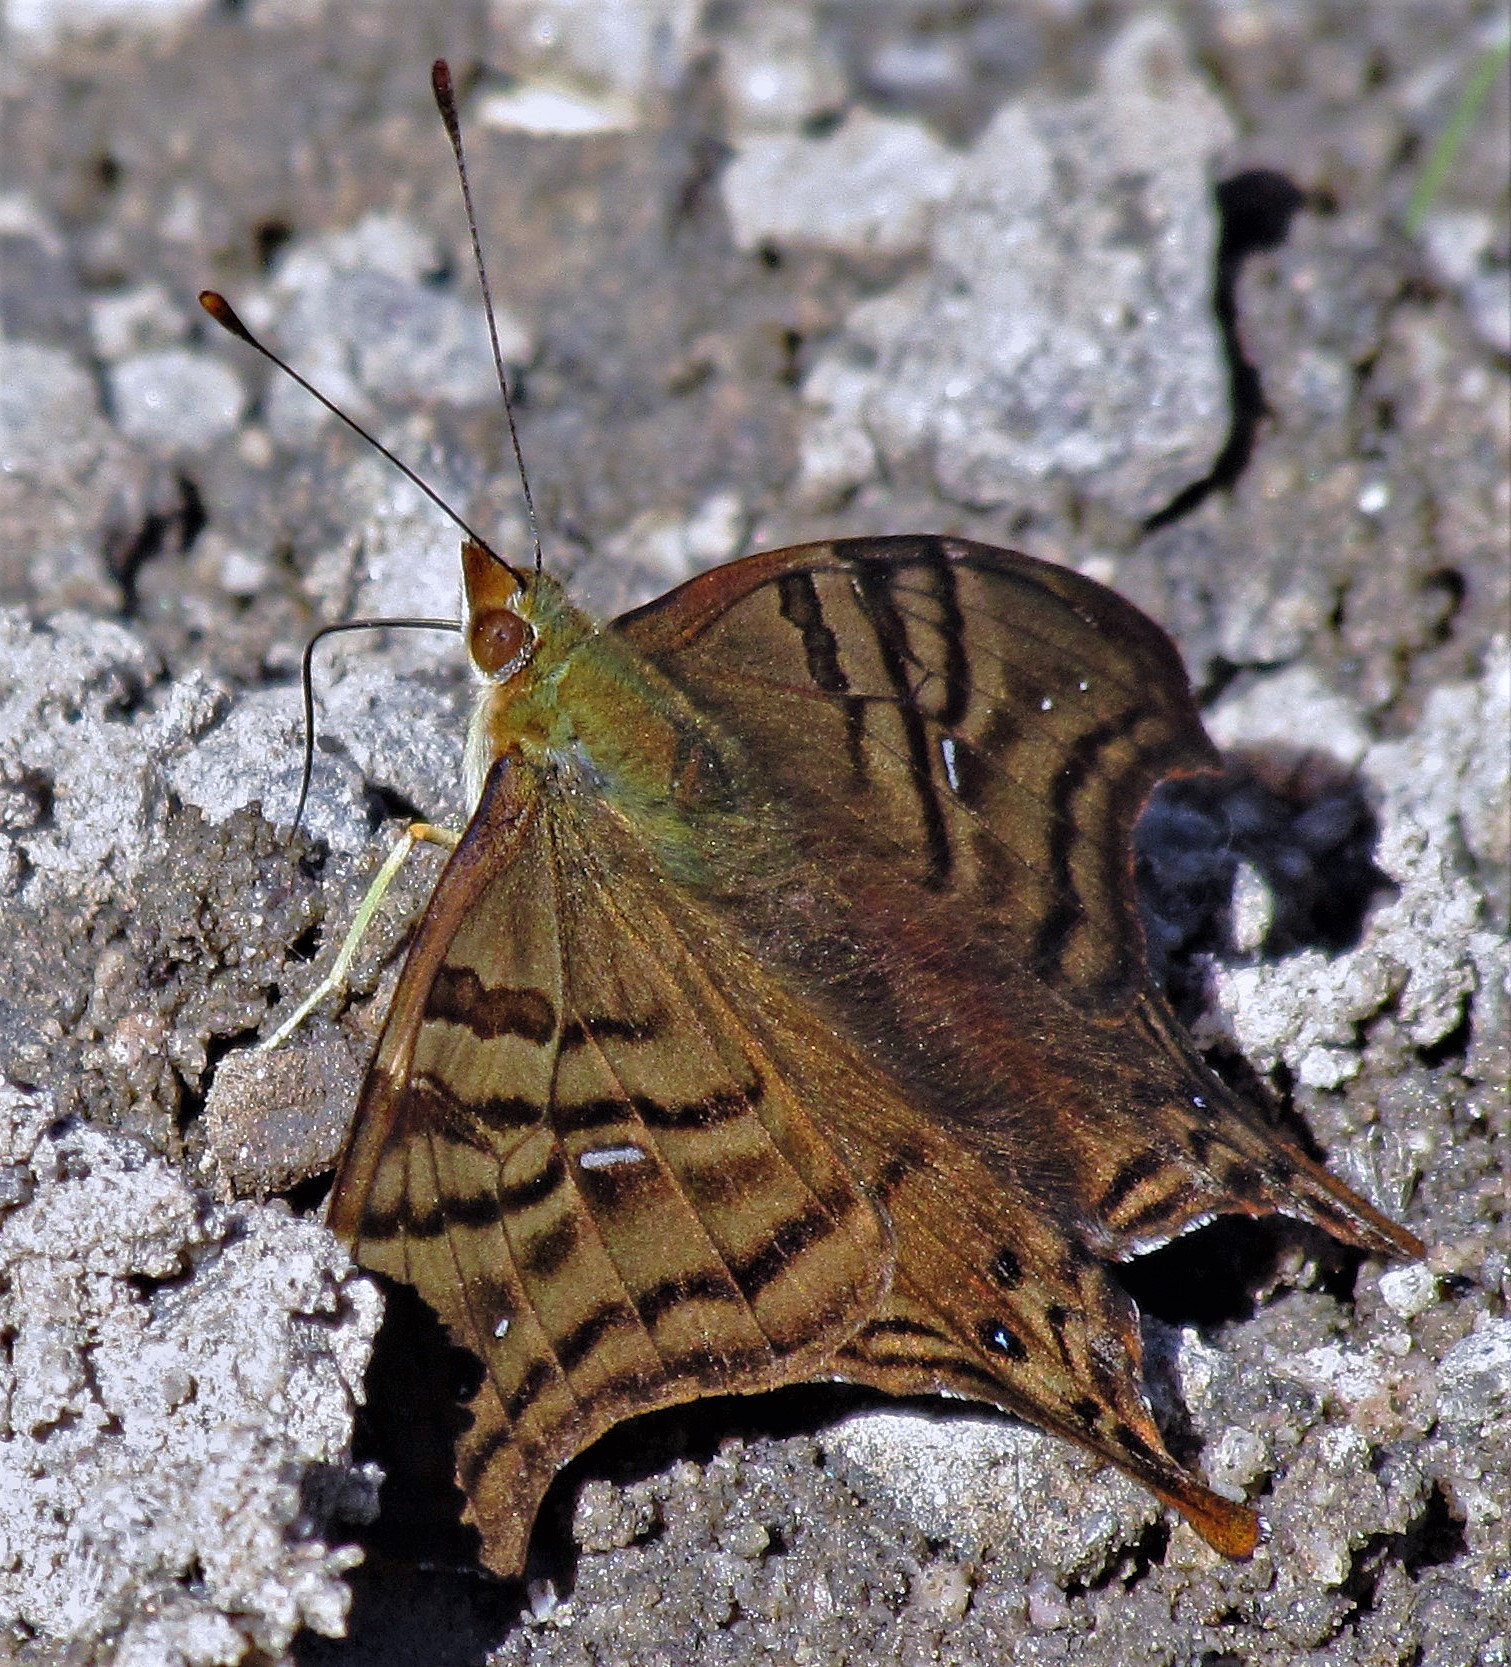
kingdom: Animalia
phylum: Arthropoda
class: Insecta
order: Lepidoptera
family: Nymphalidae
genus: Hypanartia
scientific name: Hypanartia dione
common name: Banded mapwing
